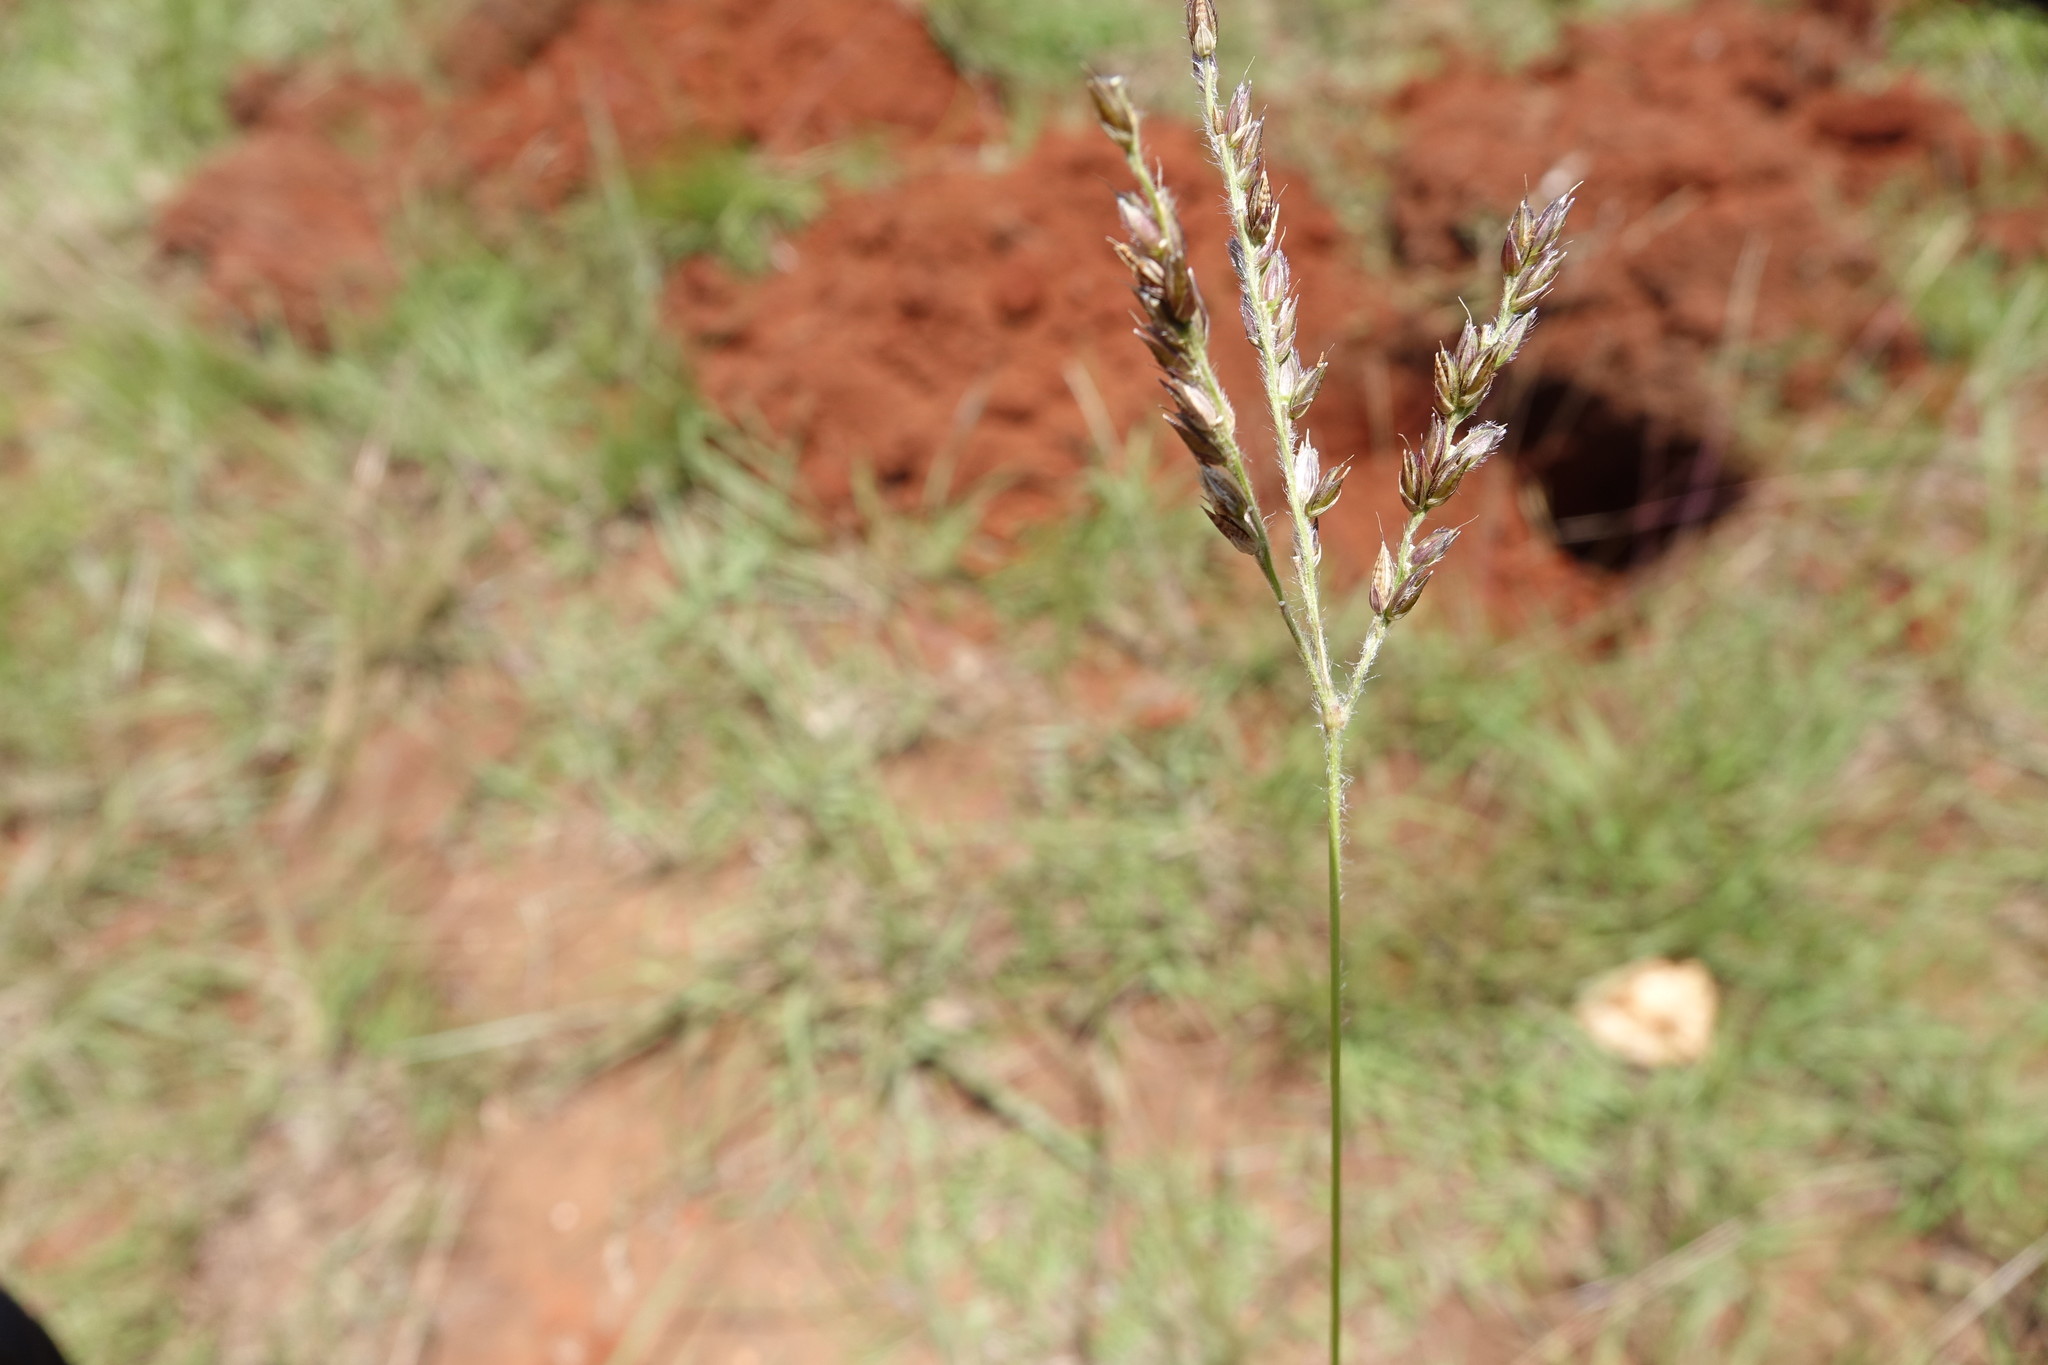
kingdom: Plantae
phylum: Tracheophyta
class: Liliopsida
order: Poales
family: Poaceae
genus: Alloteropsis
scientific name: Alloteropsis semialata
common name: Cockatoo grass
